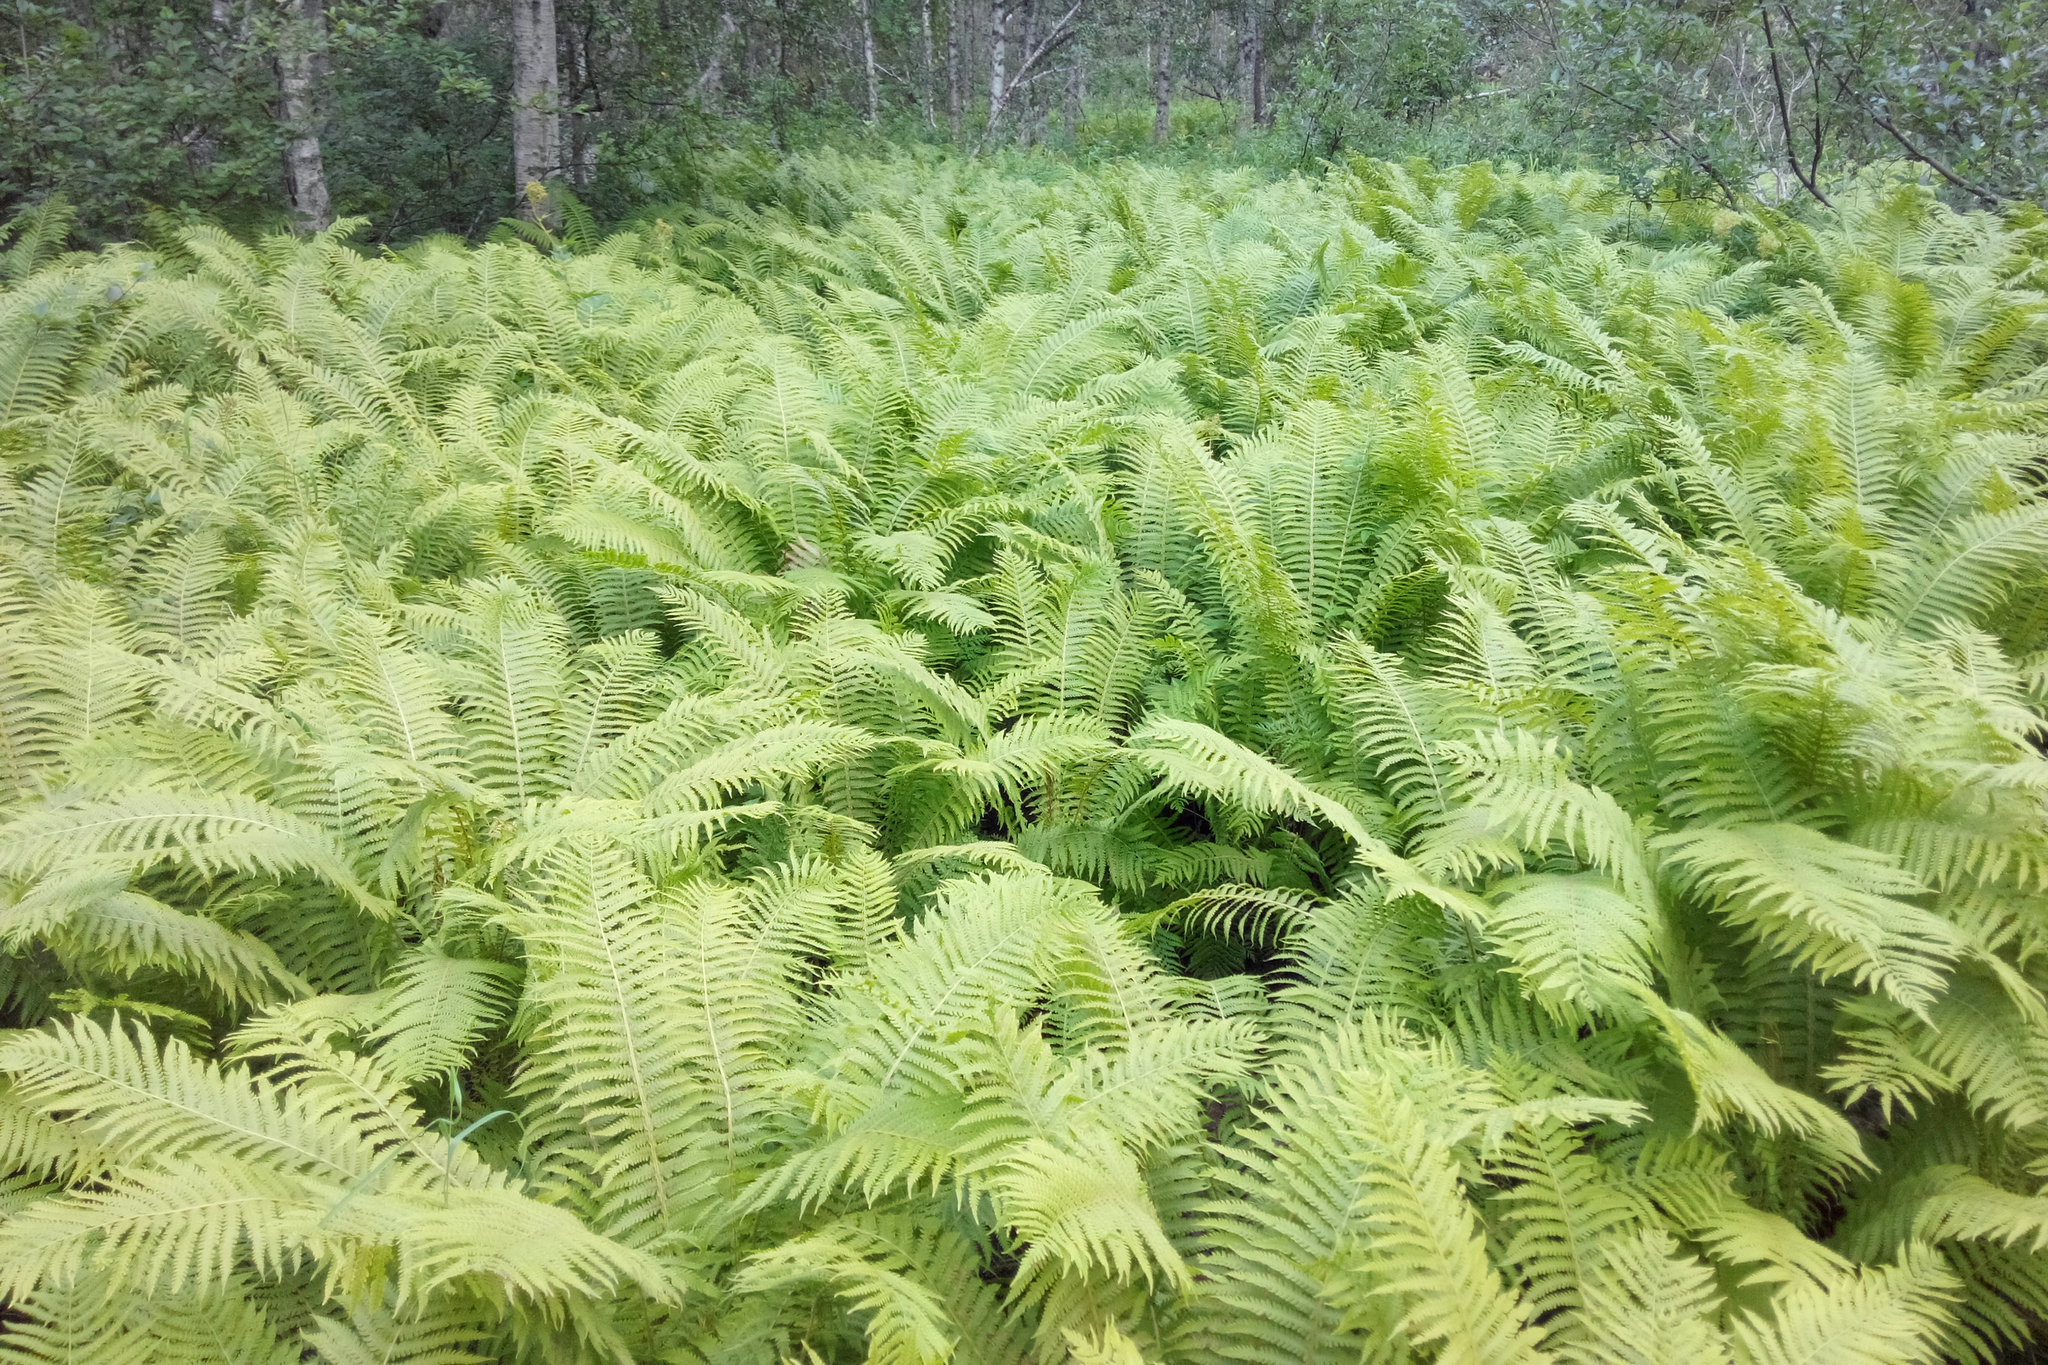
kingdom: Plantae
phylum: Tracheophyta
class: Polypodiopsida
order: Polypodiales
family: Onocleaceae
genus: Matteuccia
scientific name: Matteuccia struthiopteris
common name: Ostrich fern
